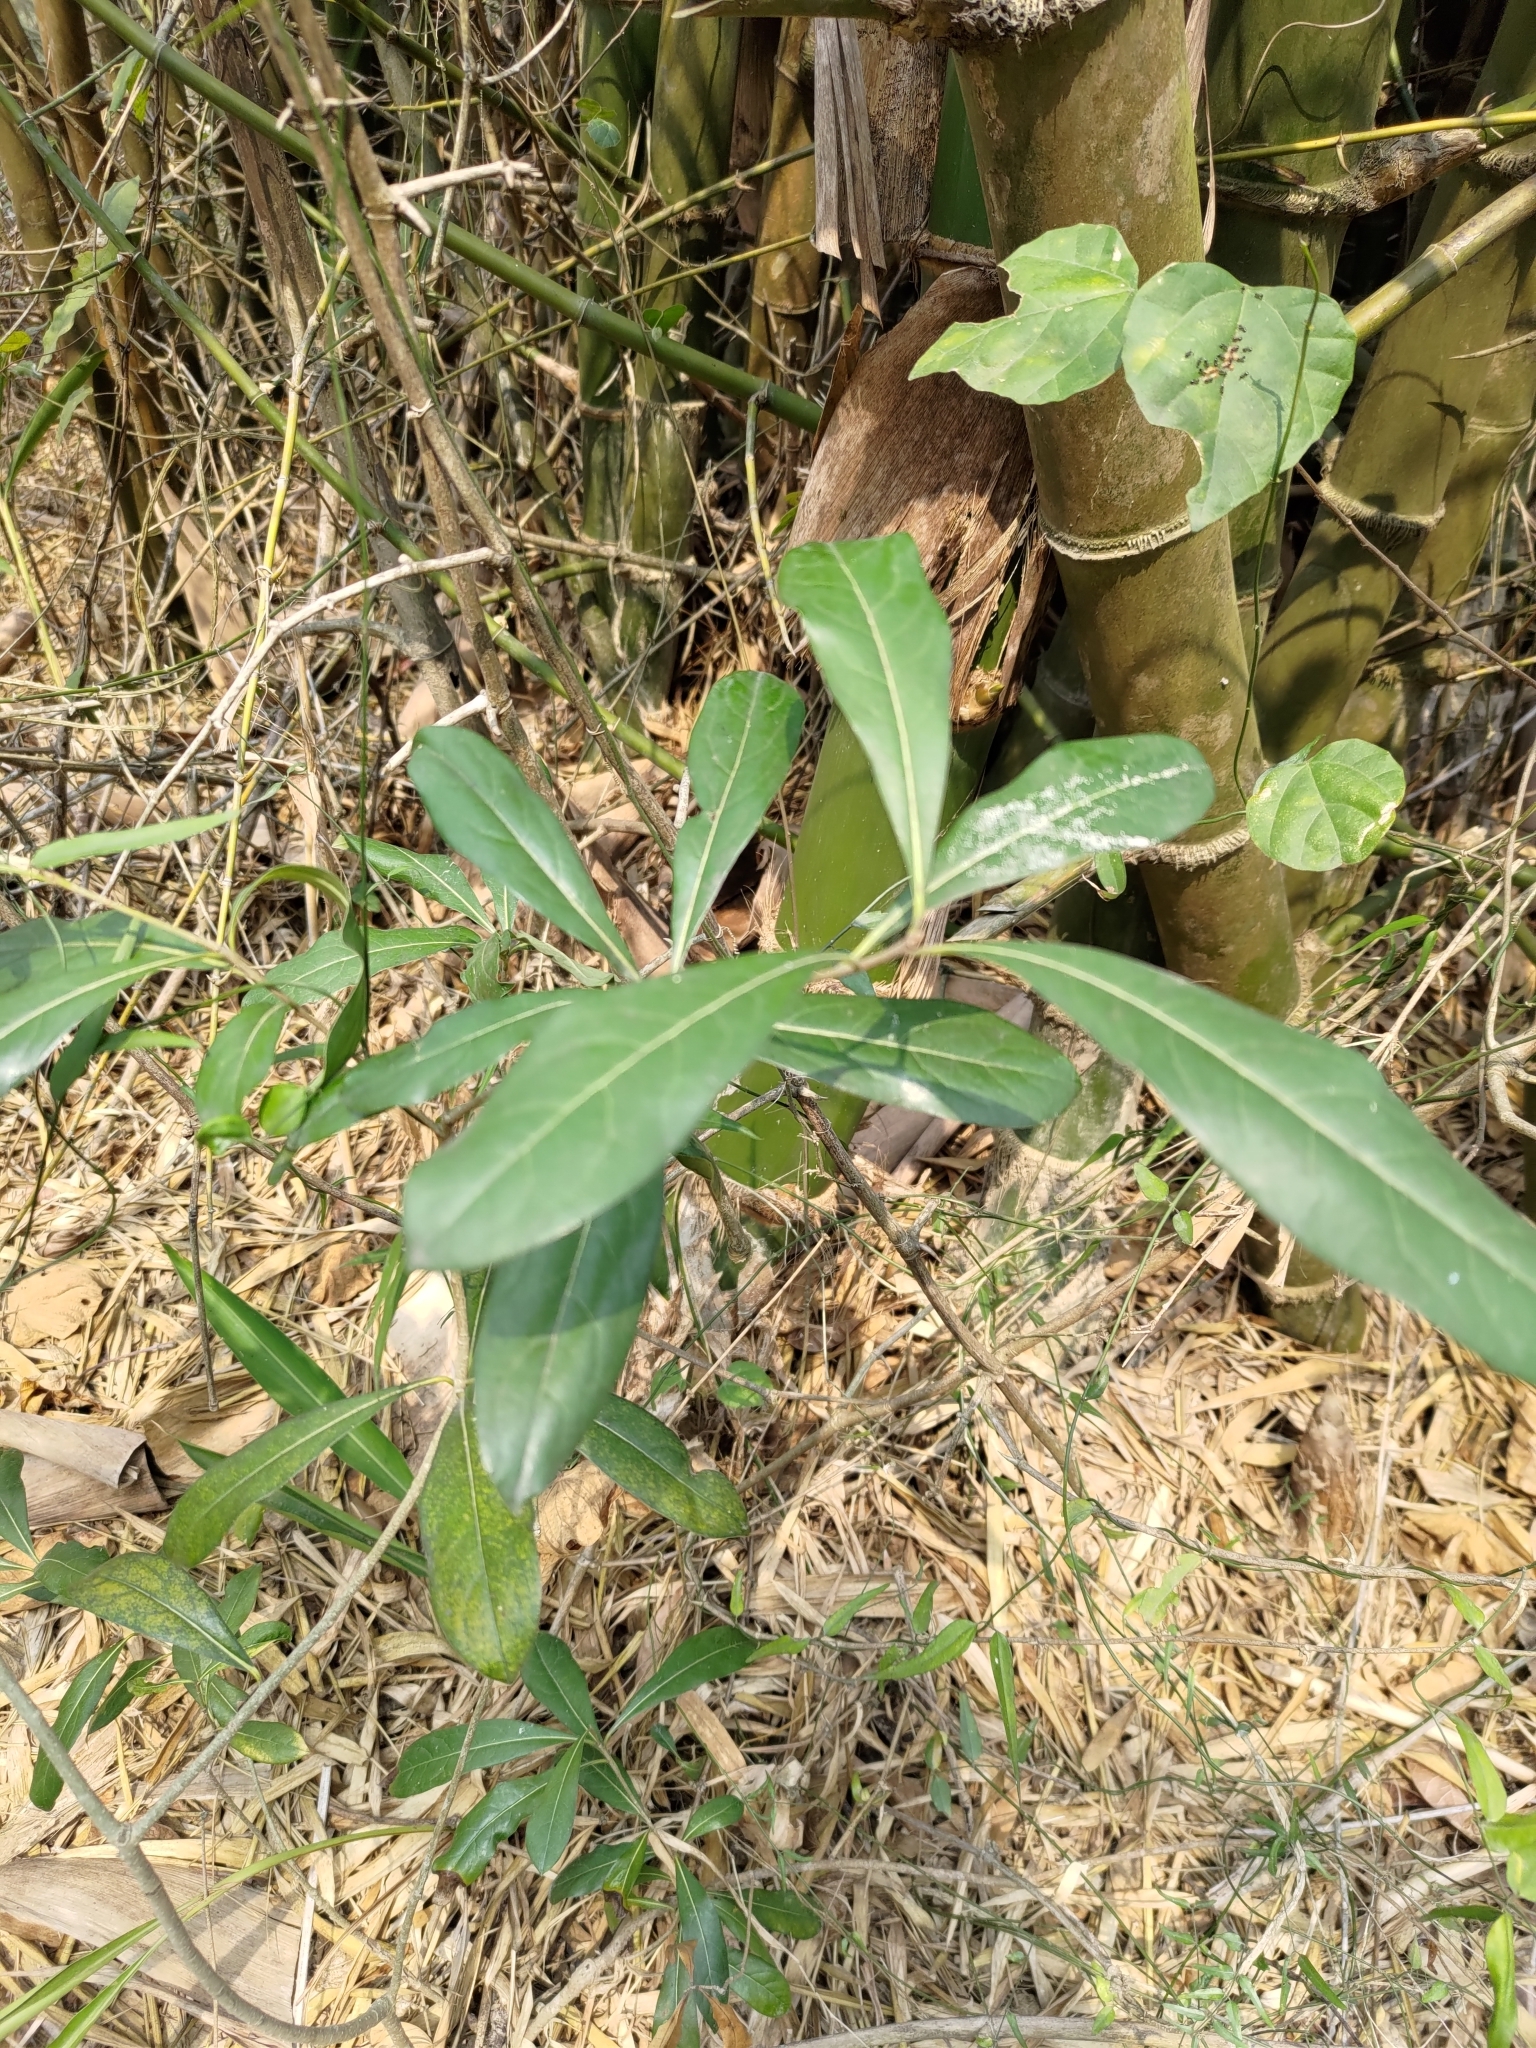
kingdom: Plantae
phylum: Tracheophyta
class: Magnoliopsida
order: Apiales
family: Pittosporaceae
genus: Pittosporum
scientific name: Pittosporum pentandrum
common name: Taiwanese cheesewood
